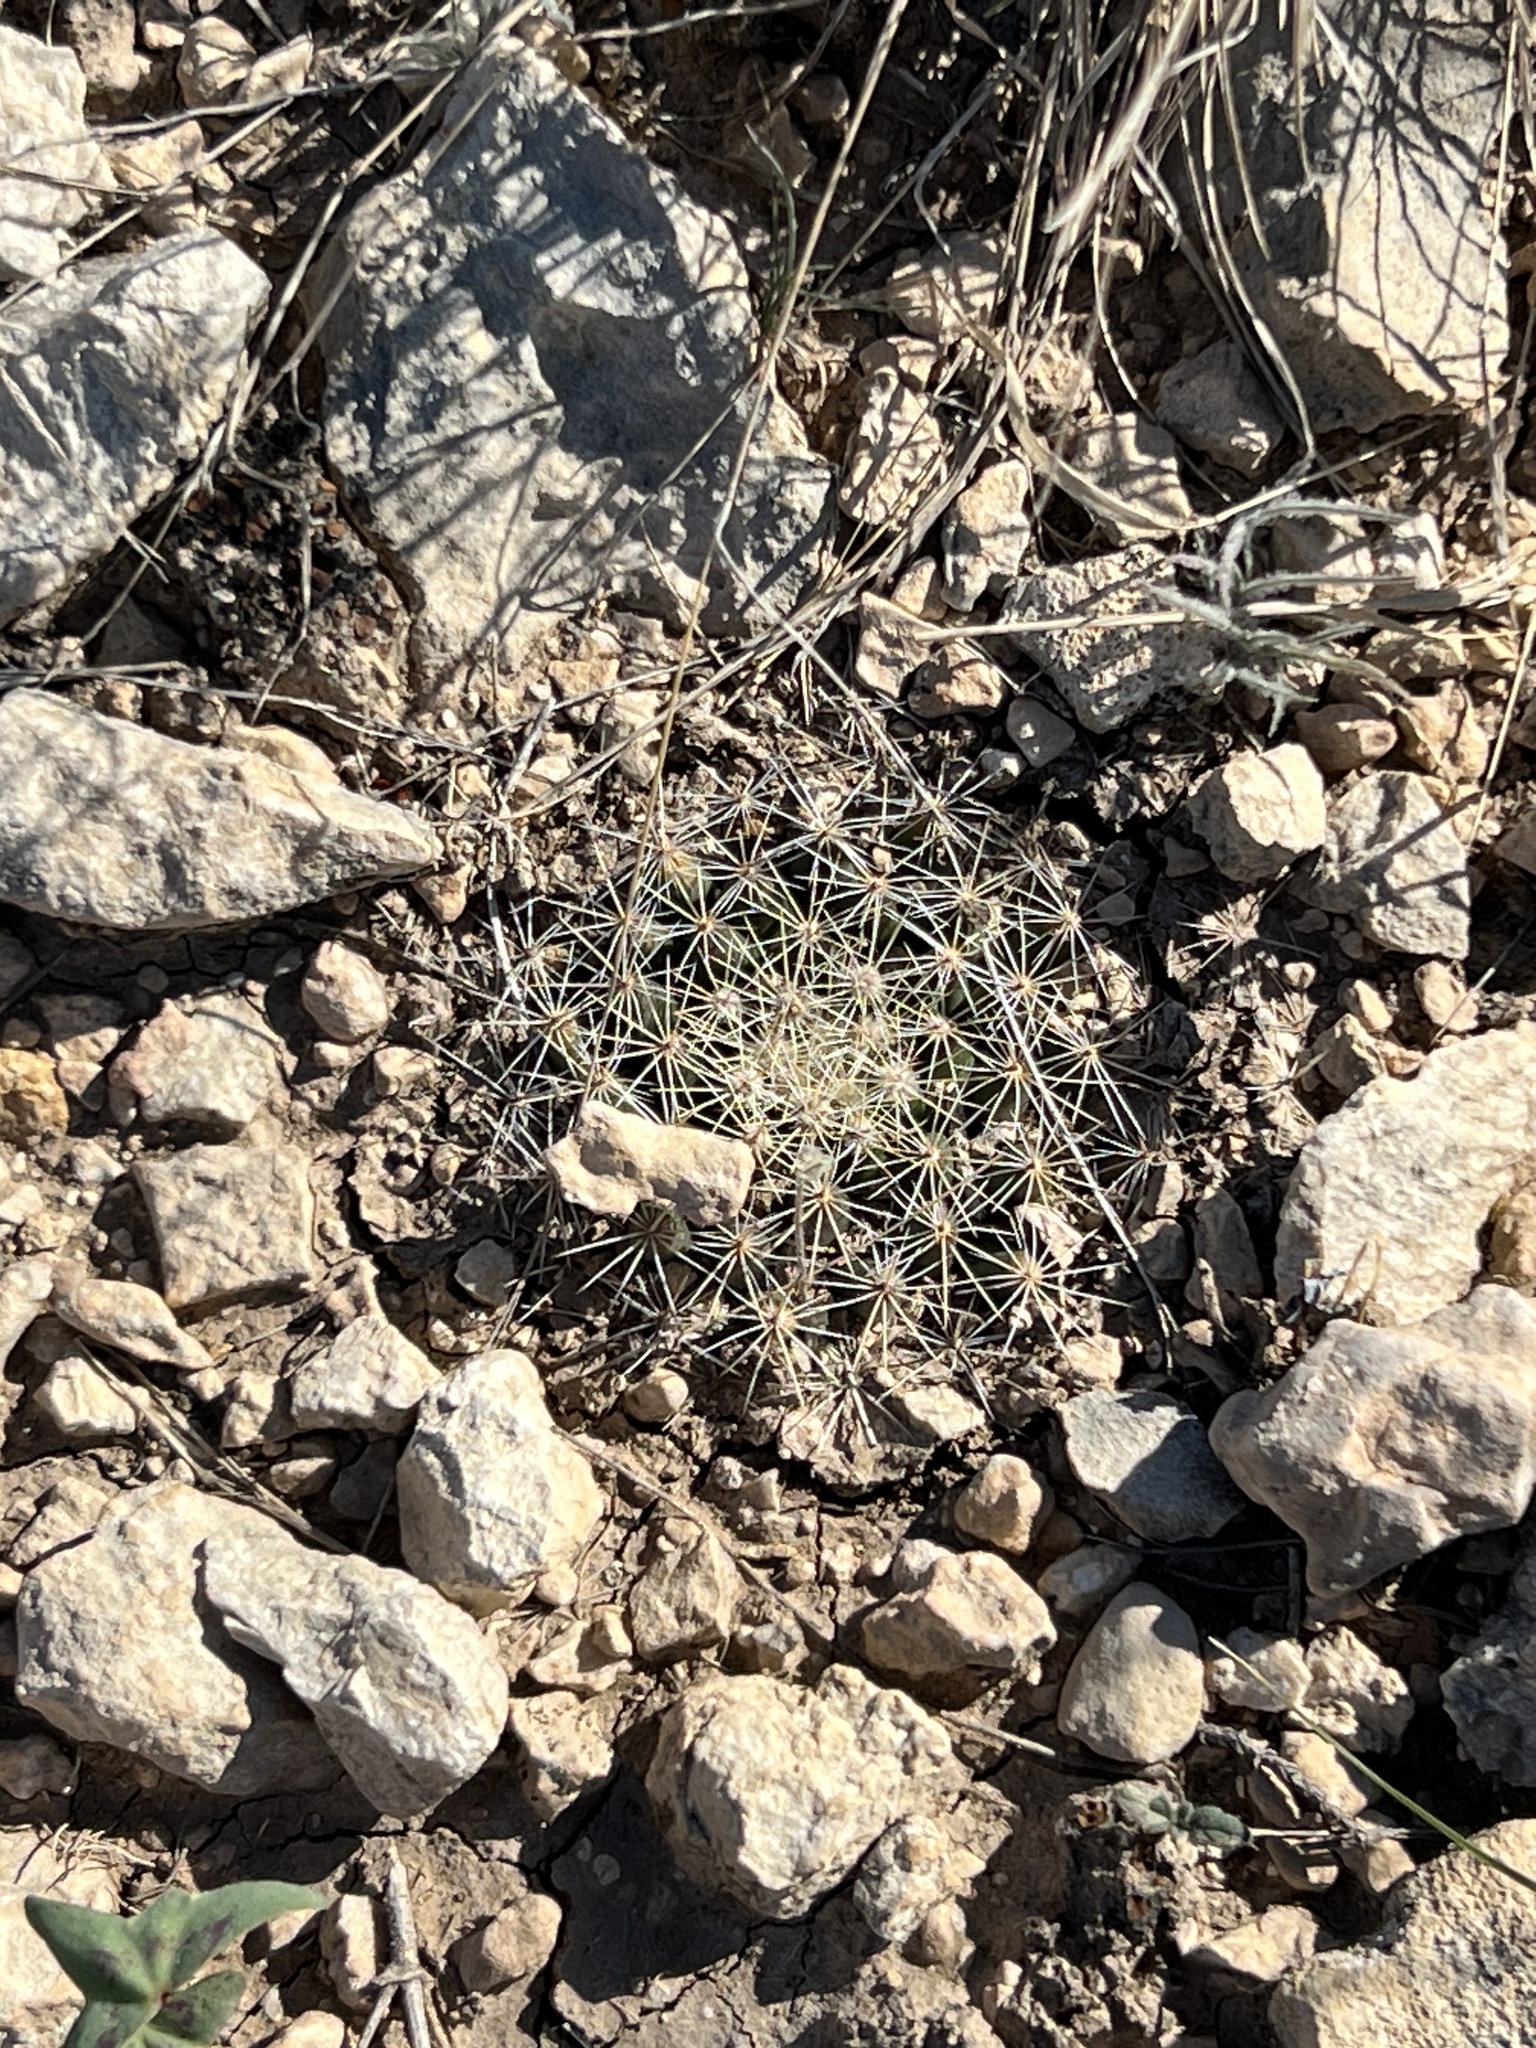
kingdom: Plantae
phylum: Tracheophyta
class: Magnoliopsida
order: Caryophyllales
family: Cactaceae
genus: Mammillaria
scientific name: Mammillaria heyderi
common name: Little nipple cactus
